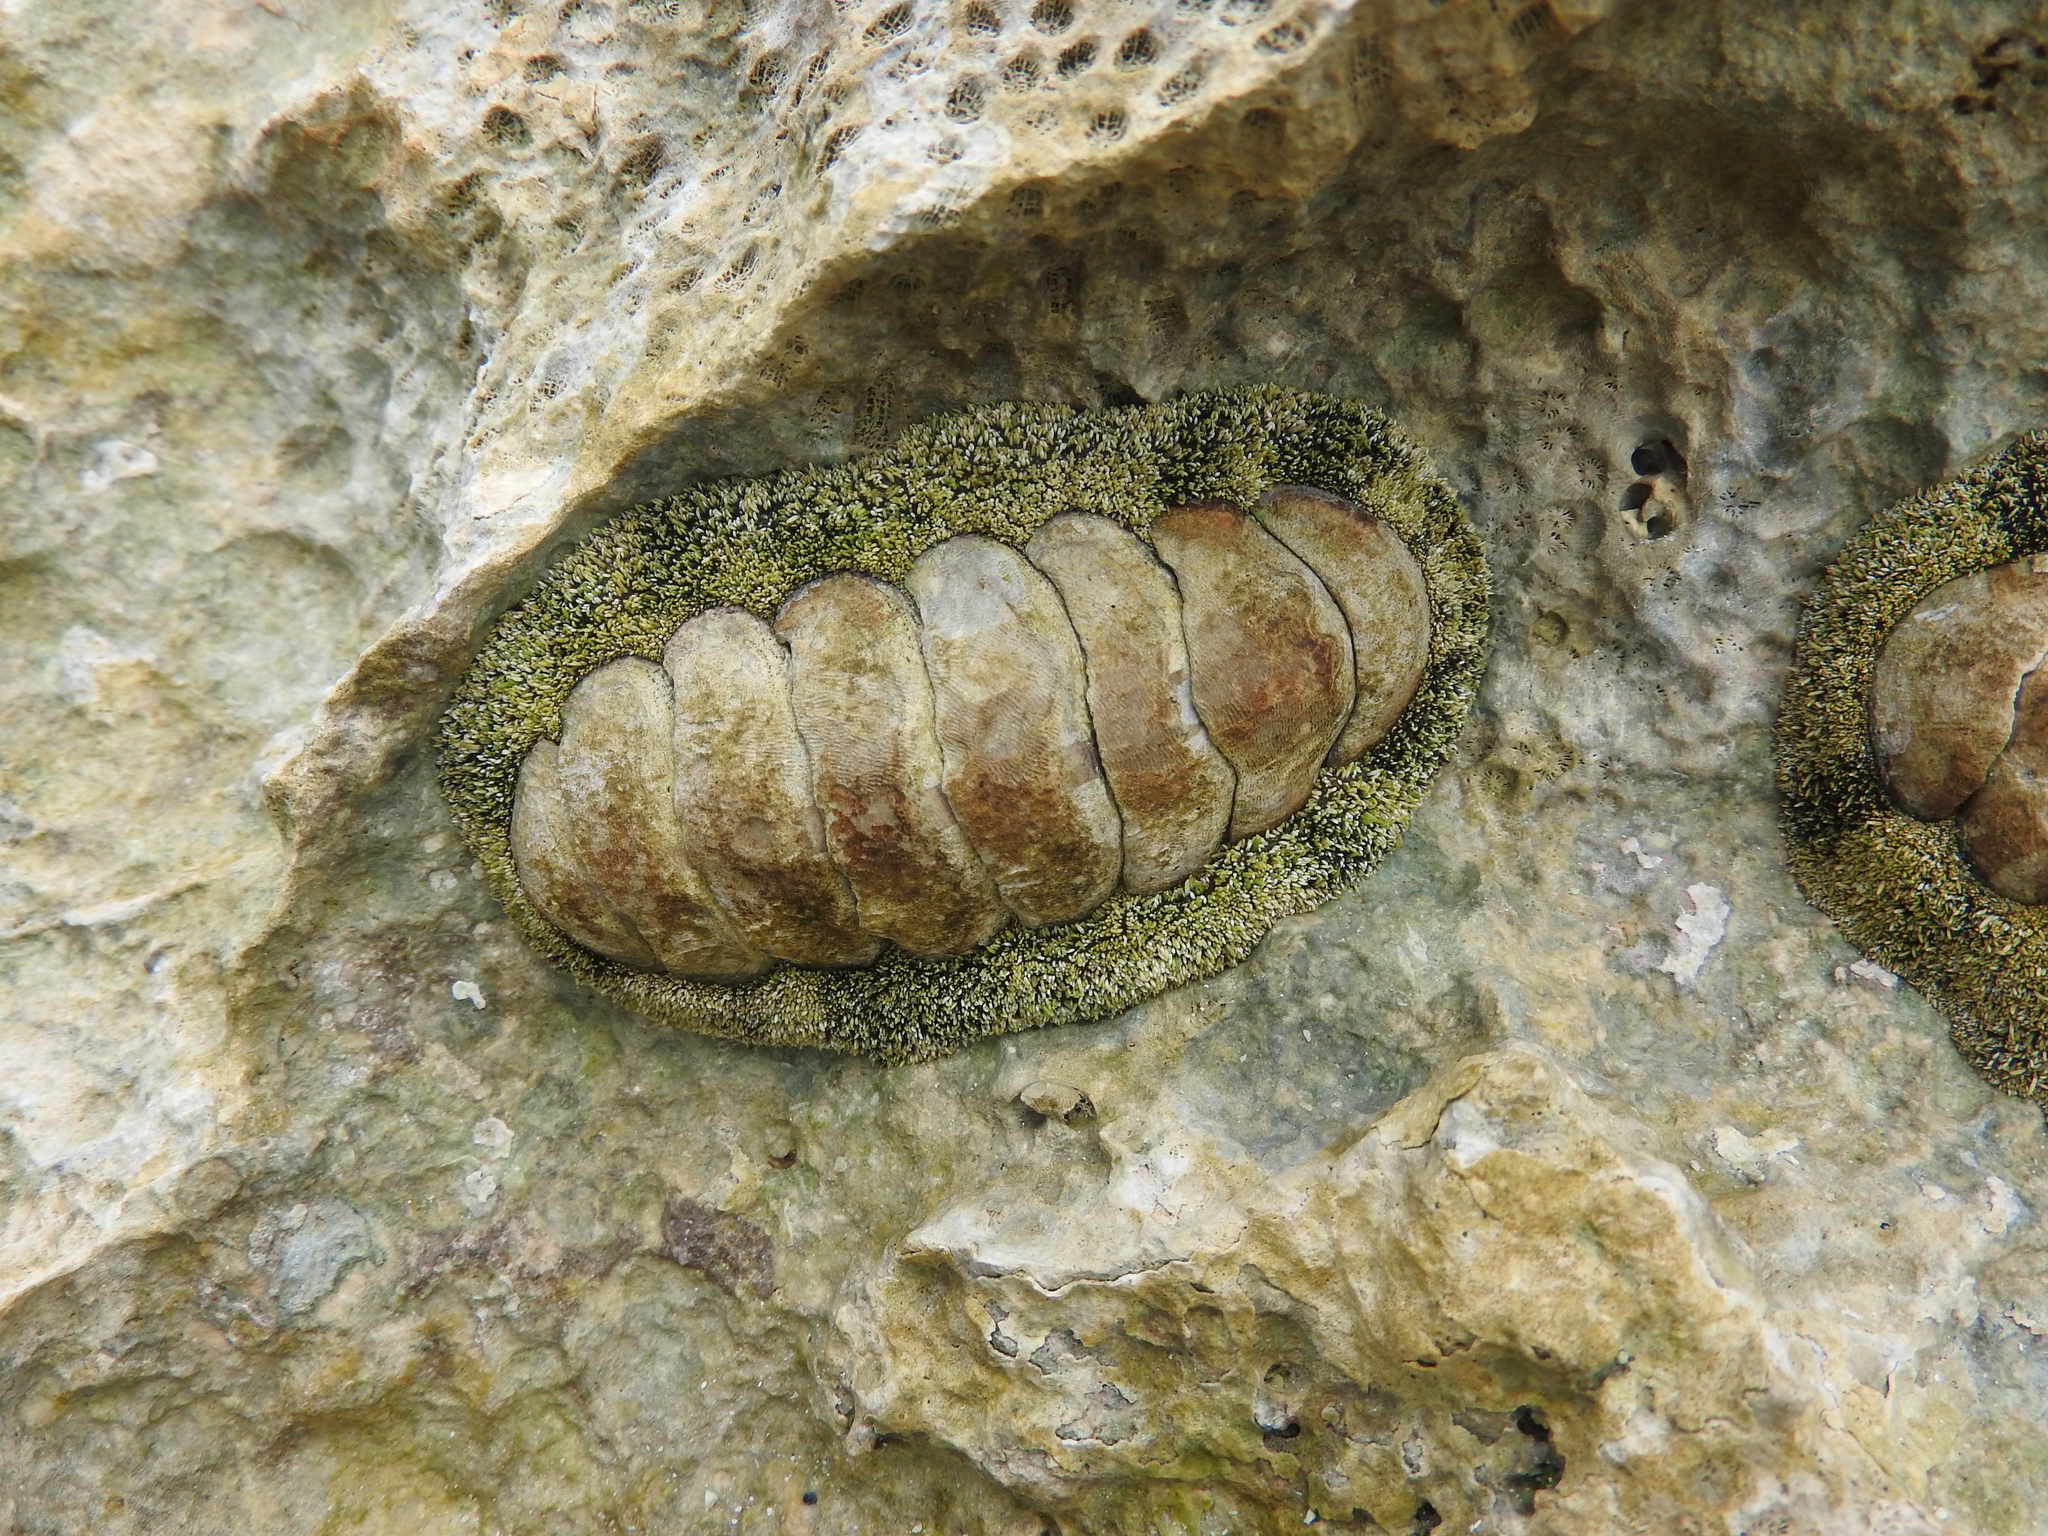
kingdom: Animalia
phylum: Mollusca
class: Polyplacophora
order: Chitonida
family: Chitonidae
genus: Acanthopleura
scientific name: Acanthopleura granulata
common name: West indian fuzzy chiton
